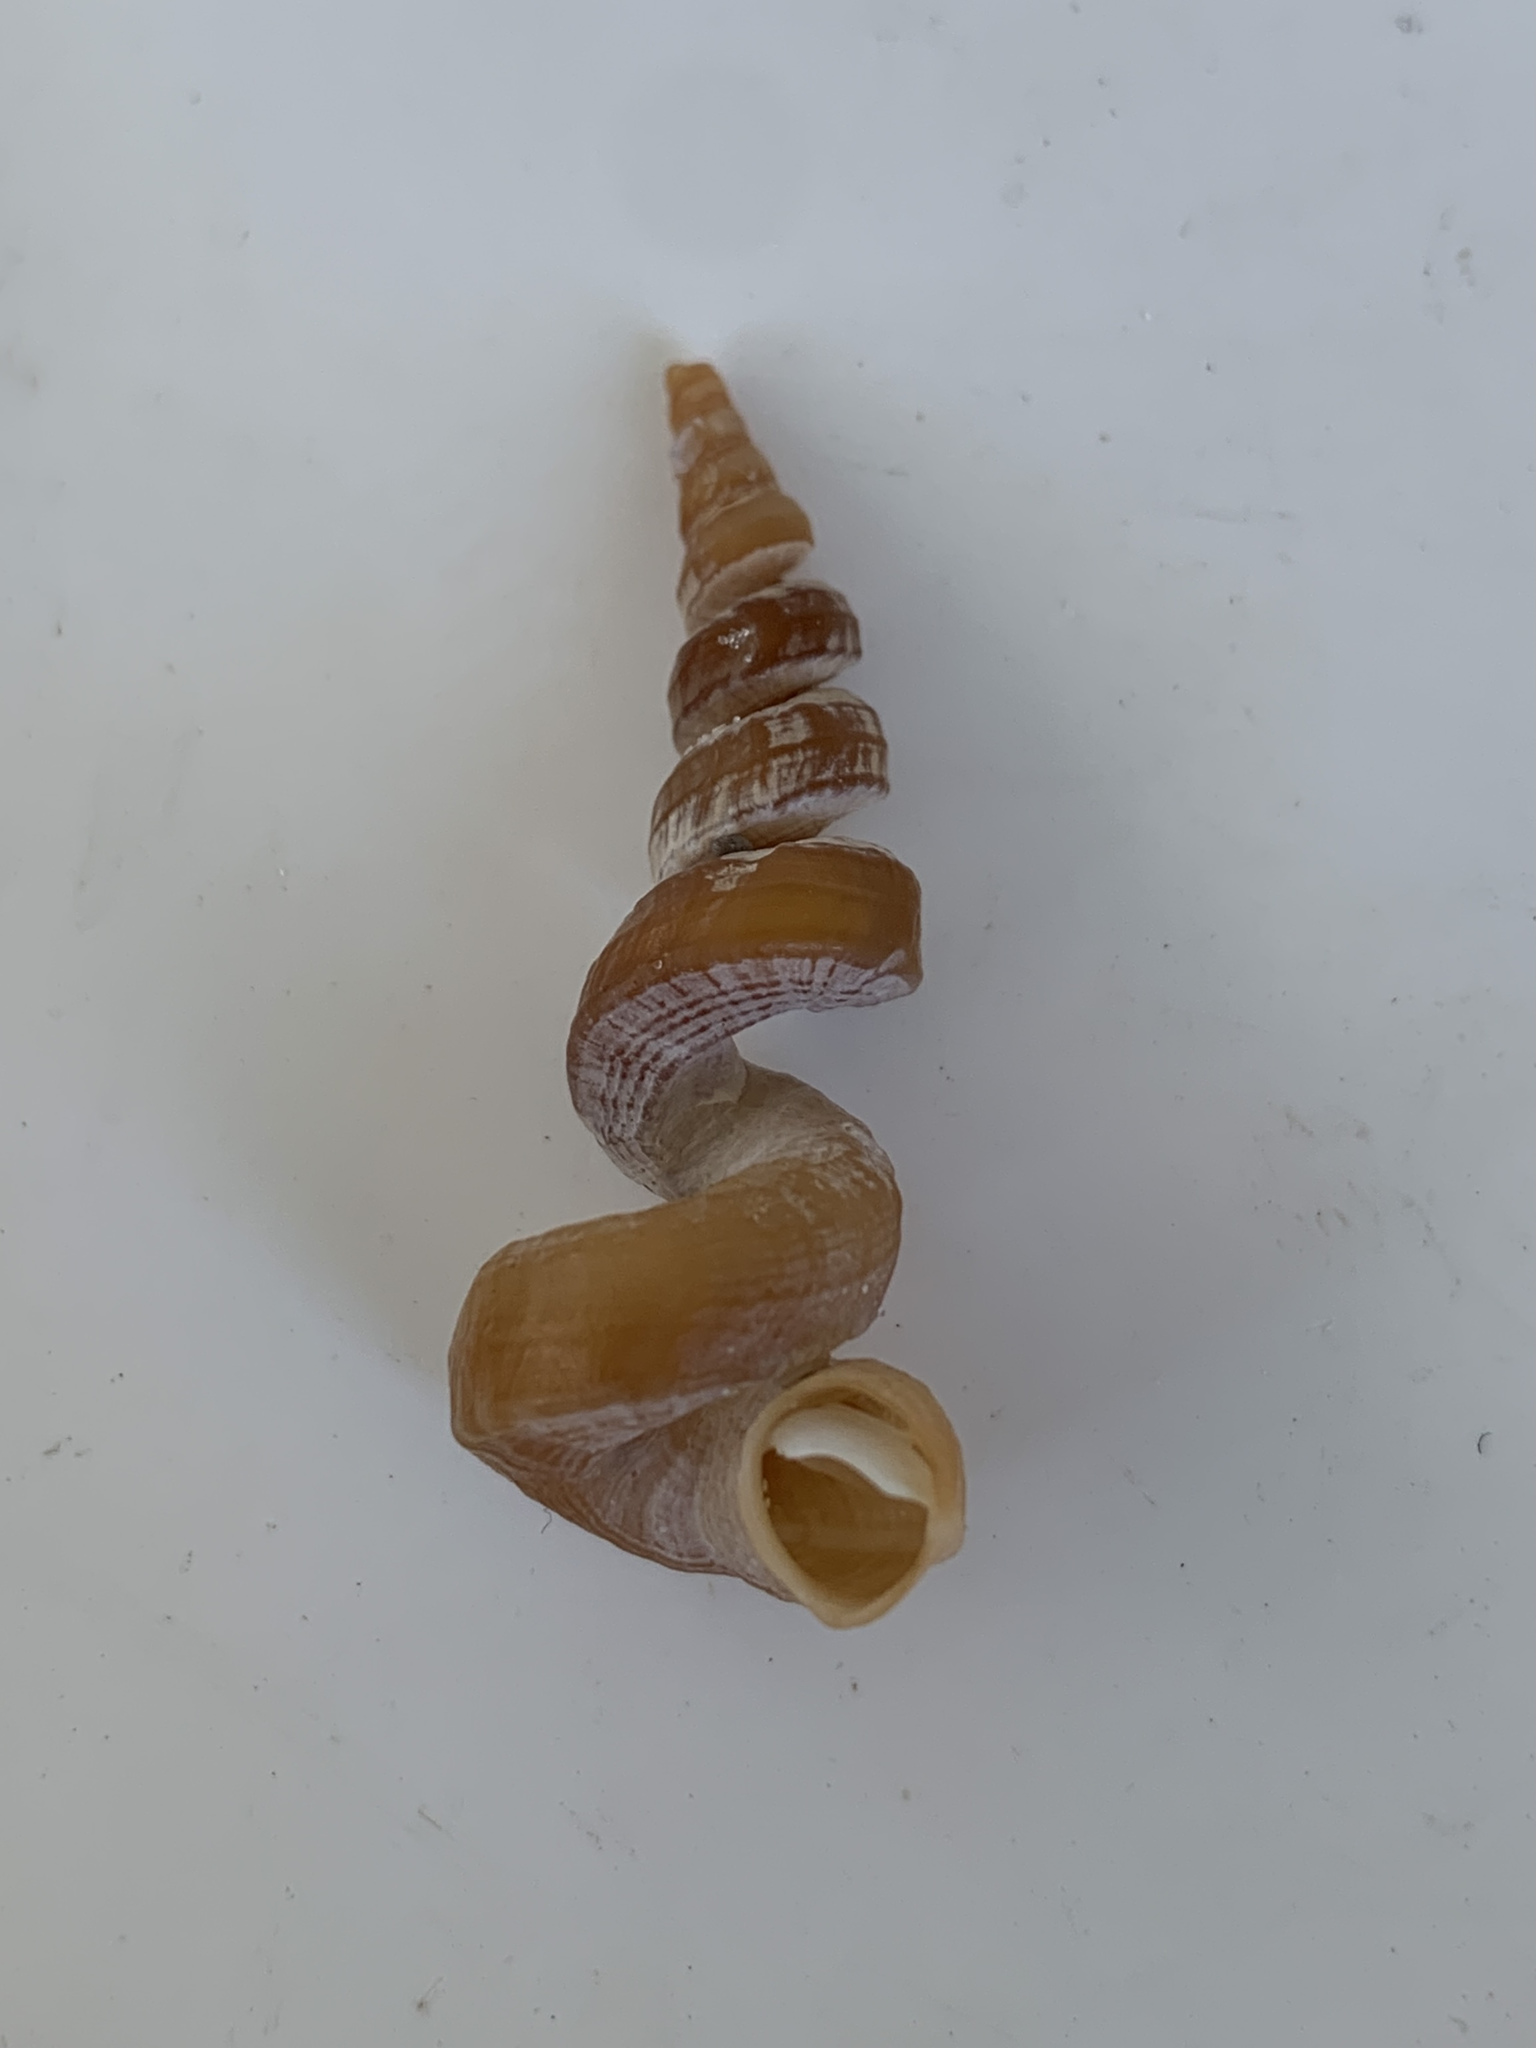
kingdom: Animalia
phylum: Mollusca
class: Gastropoda
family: Turritellidae
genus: Vermicularia
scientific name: Vermicularia fargoi
